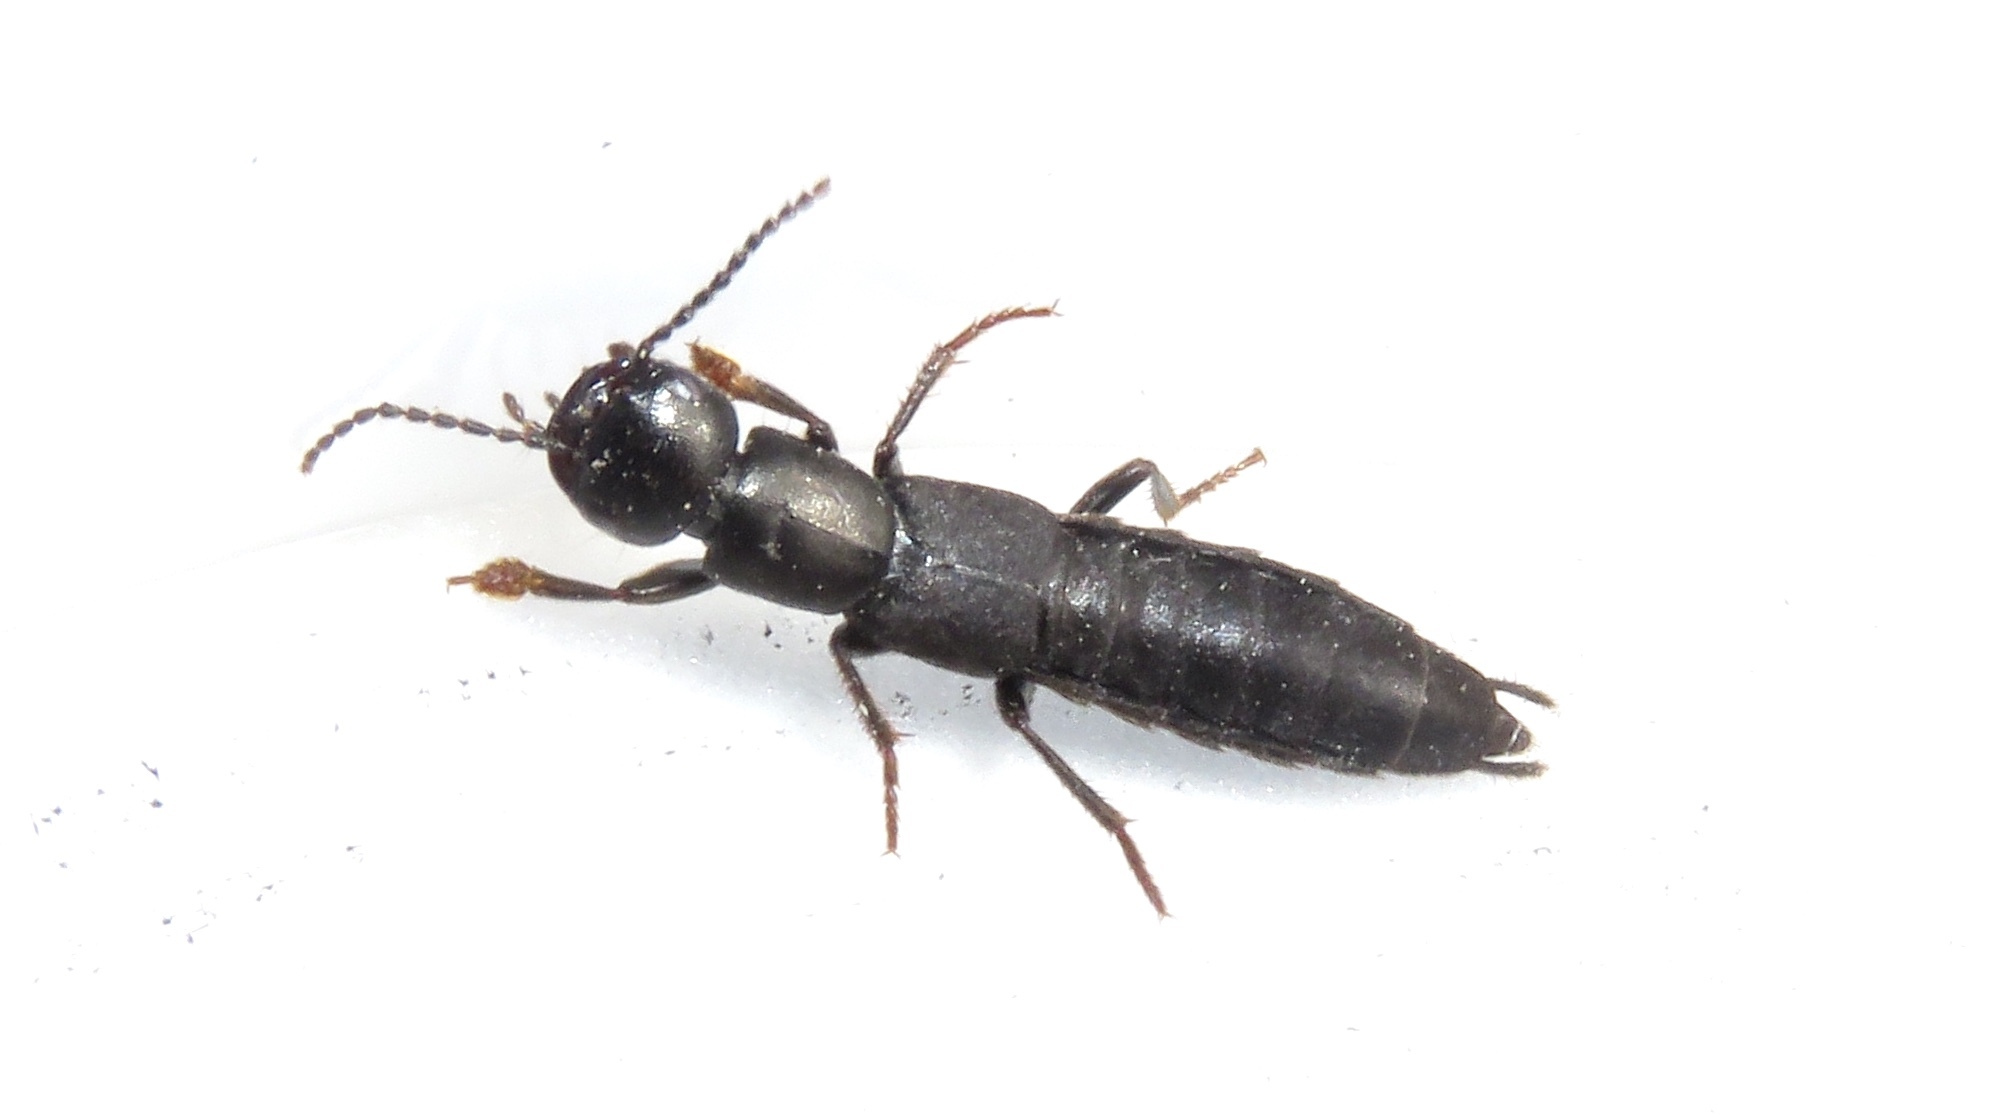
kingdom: Animalia
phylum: Arthropoda
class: Insecta
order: Coleoptera
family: Staphylinidae
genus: Tasgius
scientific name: Tasgius melanarius
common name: Rove beetle
